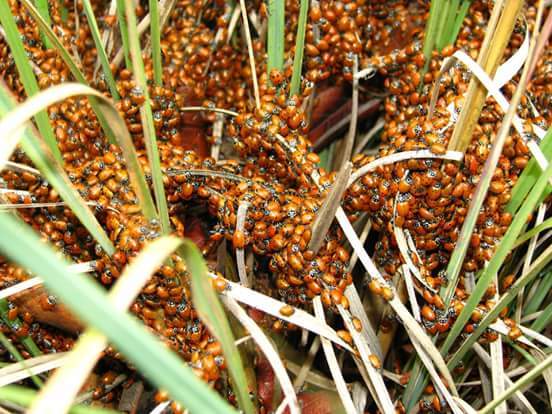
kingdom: Animalia
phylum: Arthropoda
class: Insecta
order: Coleoptera
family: Coccinellidae
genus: Hippodamia
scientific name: Hippodamia convergens
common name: Convergent lady beetle
